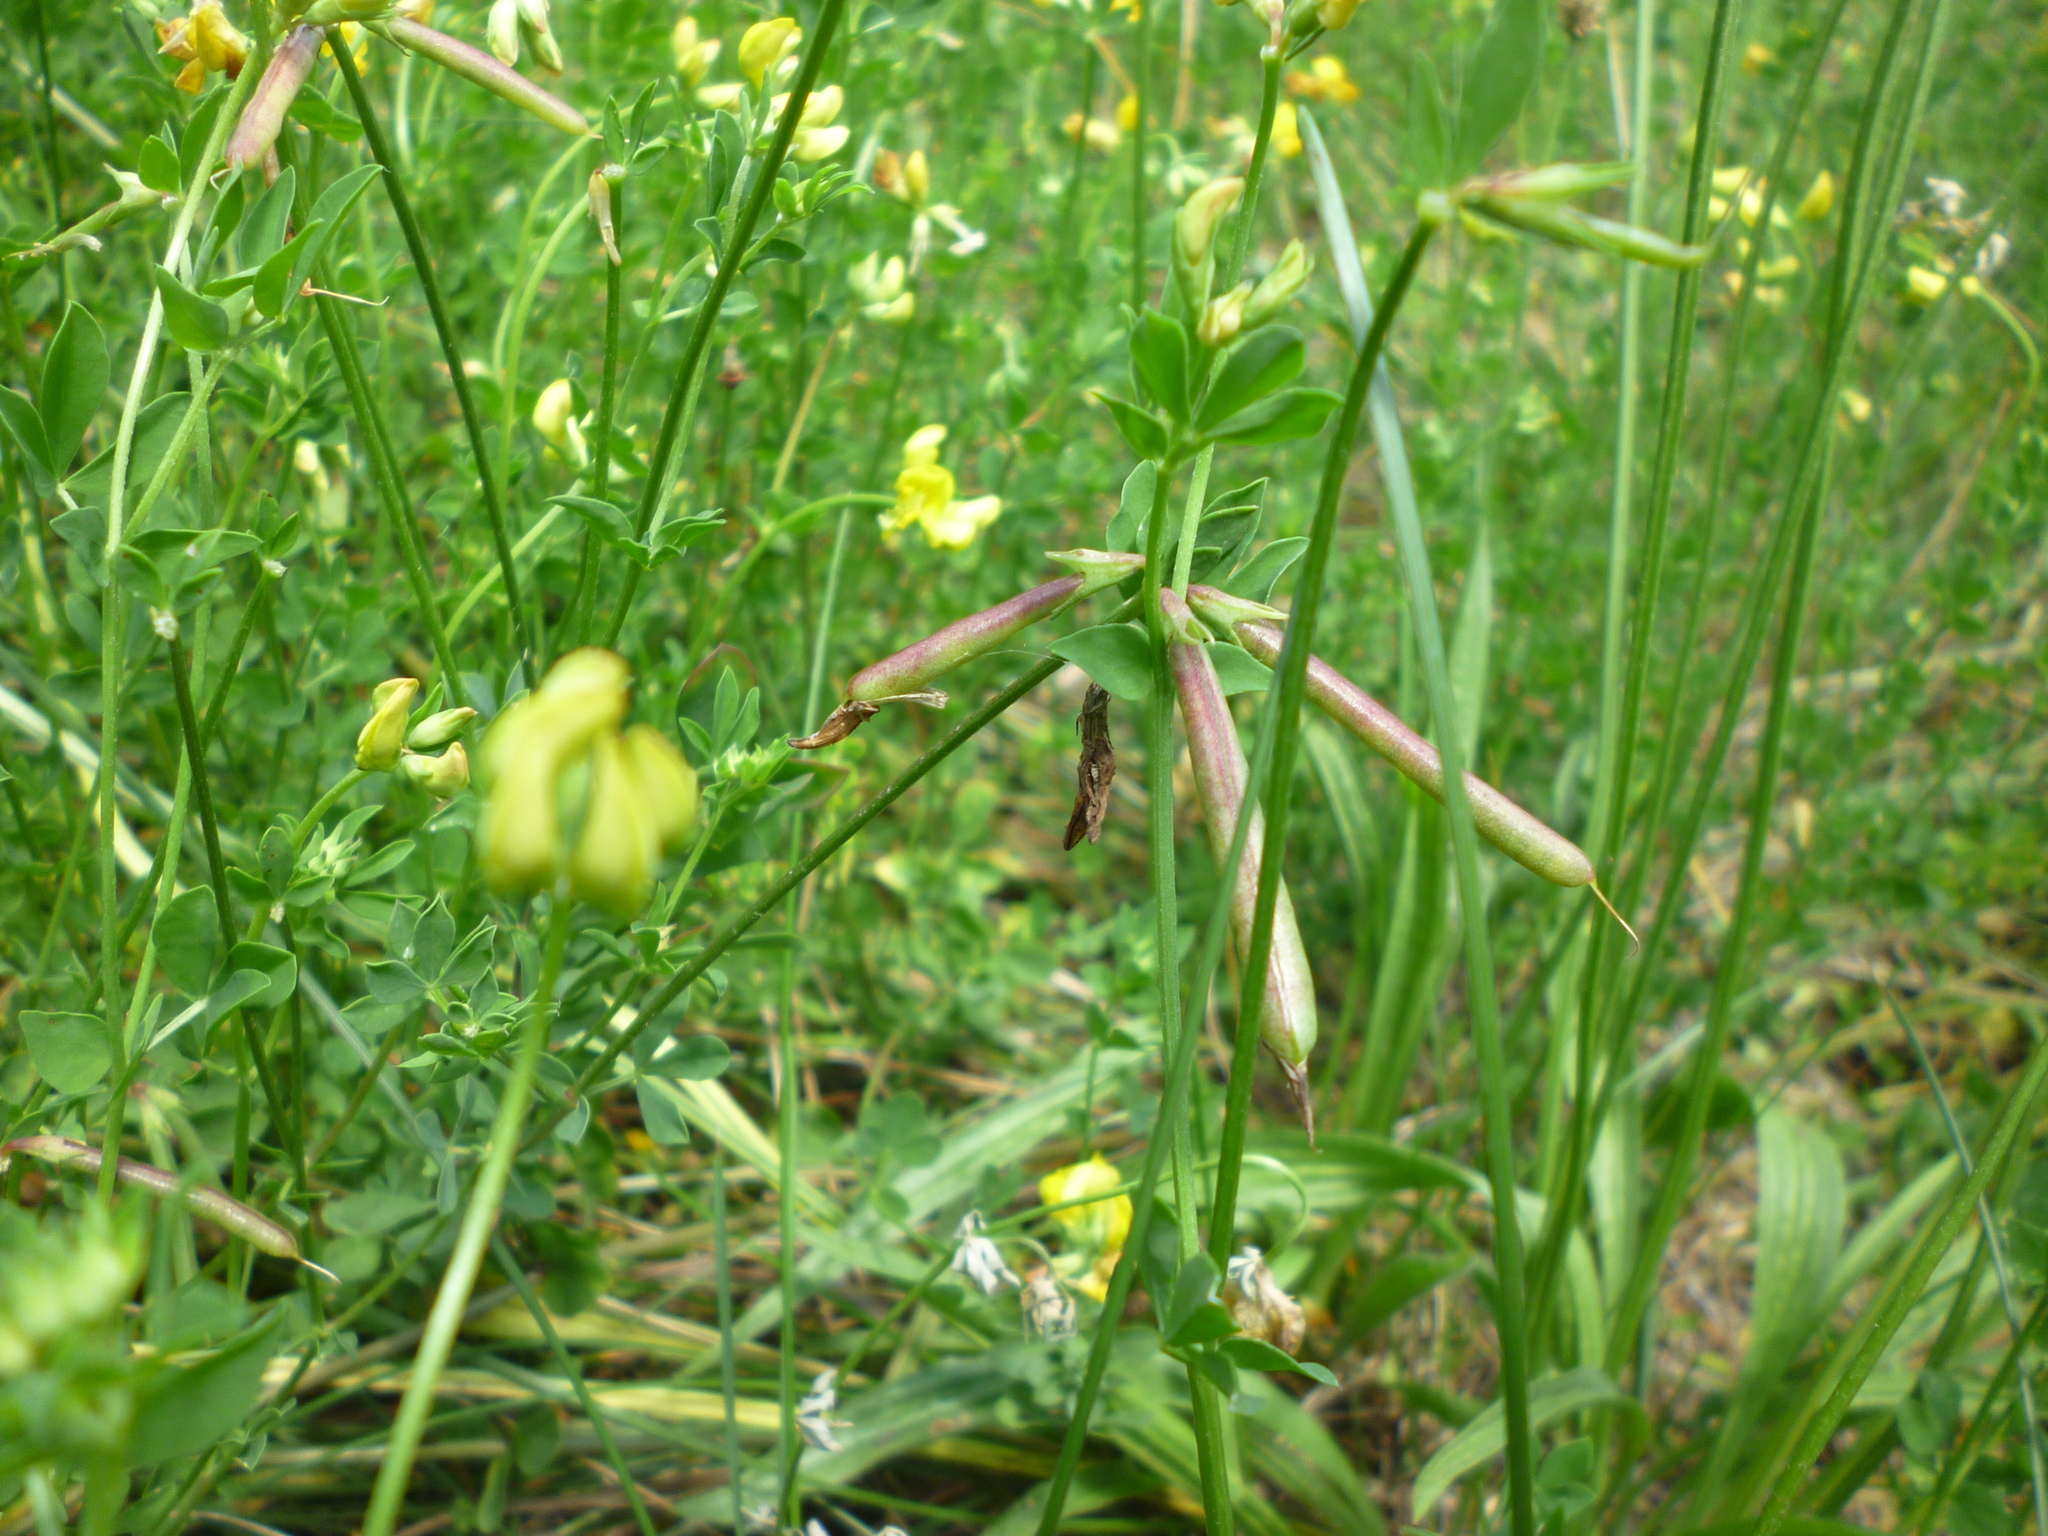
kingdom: Plantae
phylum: Tracheophyta
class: Magnoliopsida
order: Fabales
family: Fabaceae
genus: Lotus
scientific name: Lotus corniculatus
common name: Common bird's-foot-trefoil
